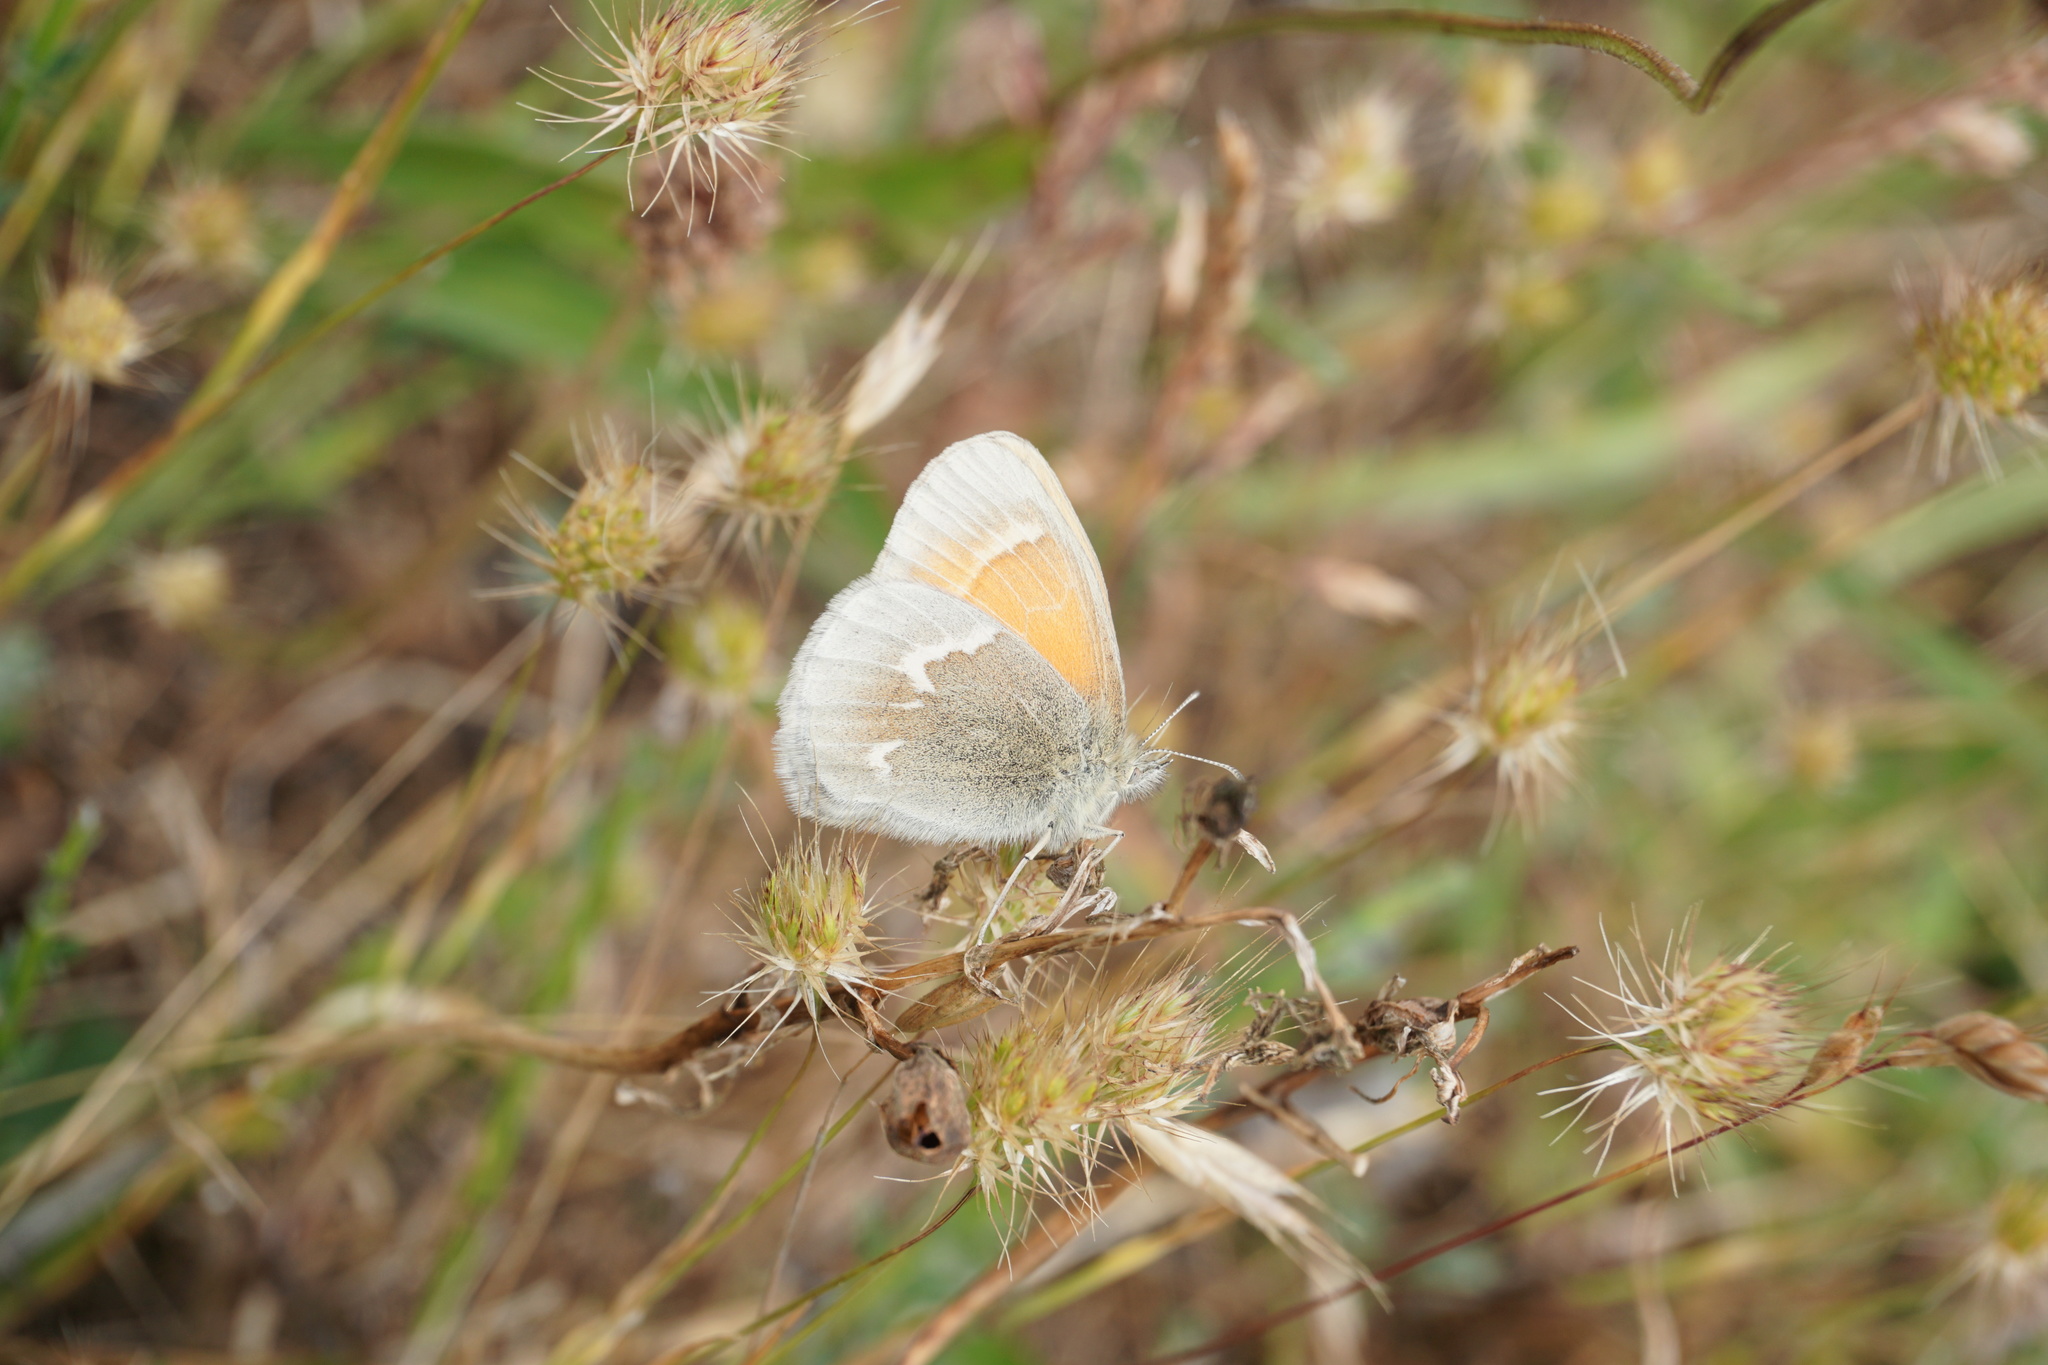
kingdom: Animalia
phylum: Arthropoda
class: Insecta
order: Lepidoptera
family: Nymphalidae
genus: Coenonympha
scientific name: Coenonympha california
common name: Common ringlet
